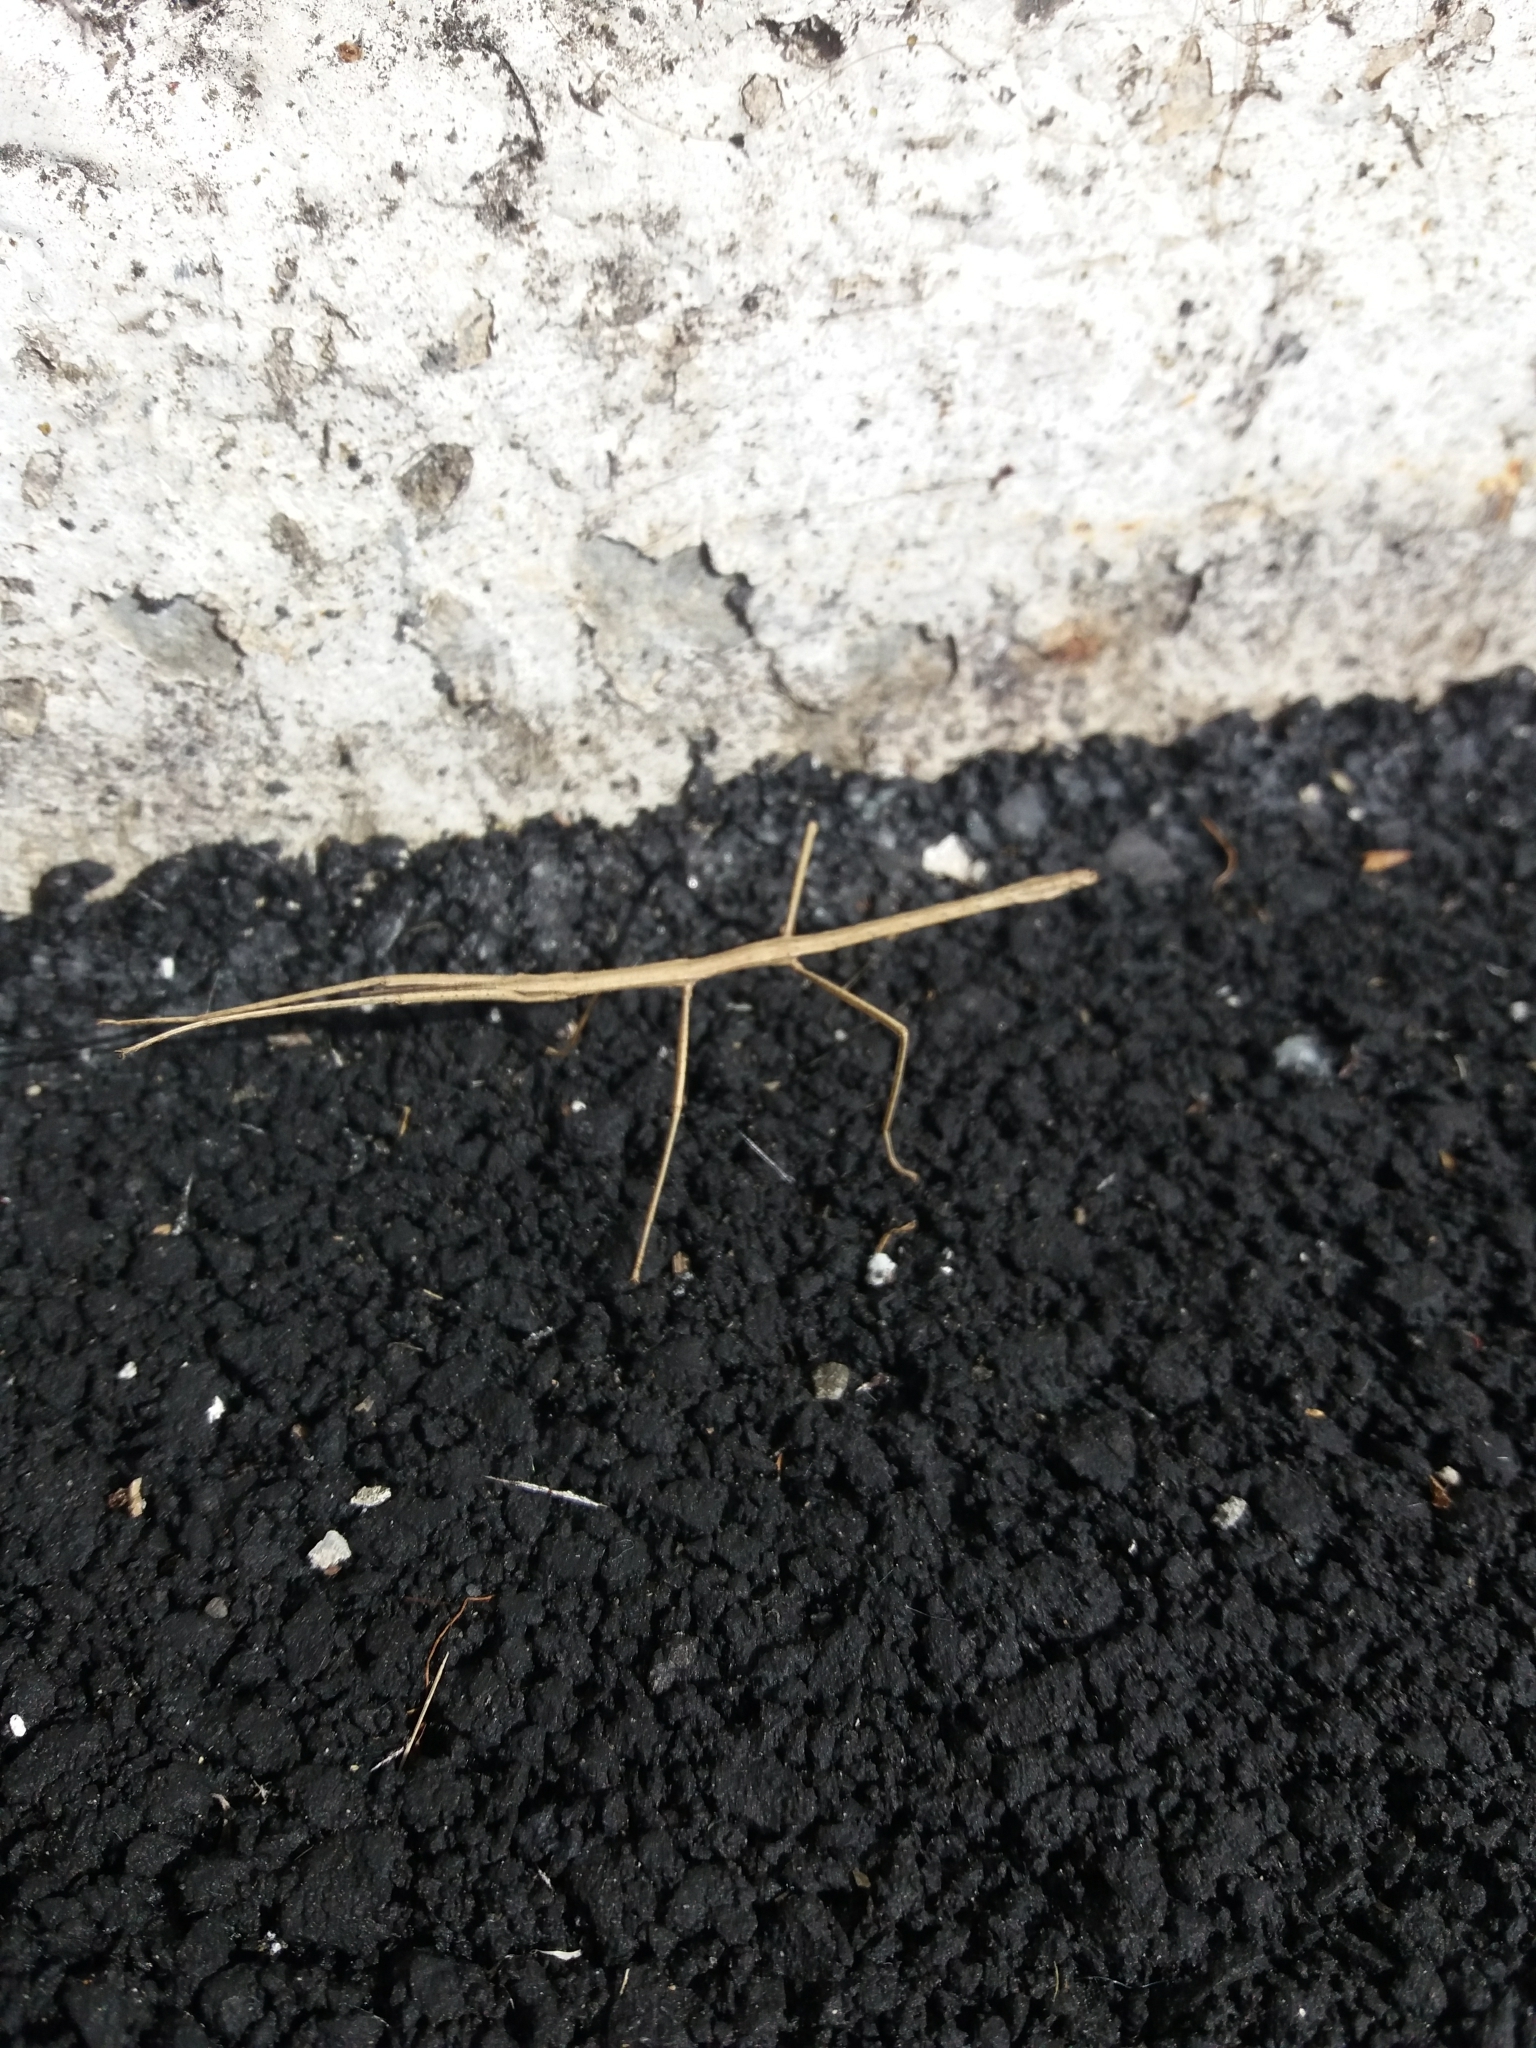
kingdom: Animalia
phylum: Arthropoda
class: Insecta
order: Phasmida
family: Phasmatidae
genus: Tectarchus
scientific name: Tectarchus huttoni
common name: The common ridge-backed stick insect
